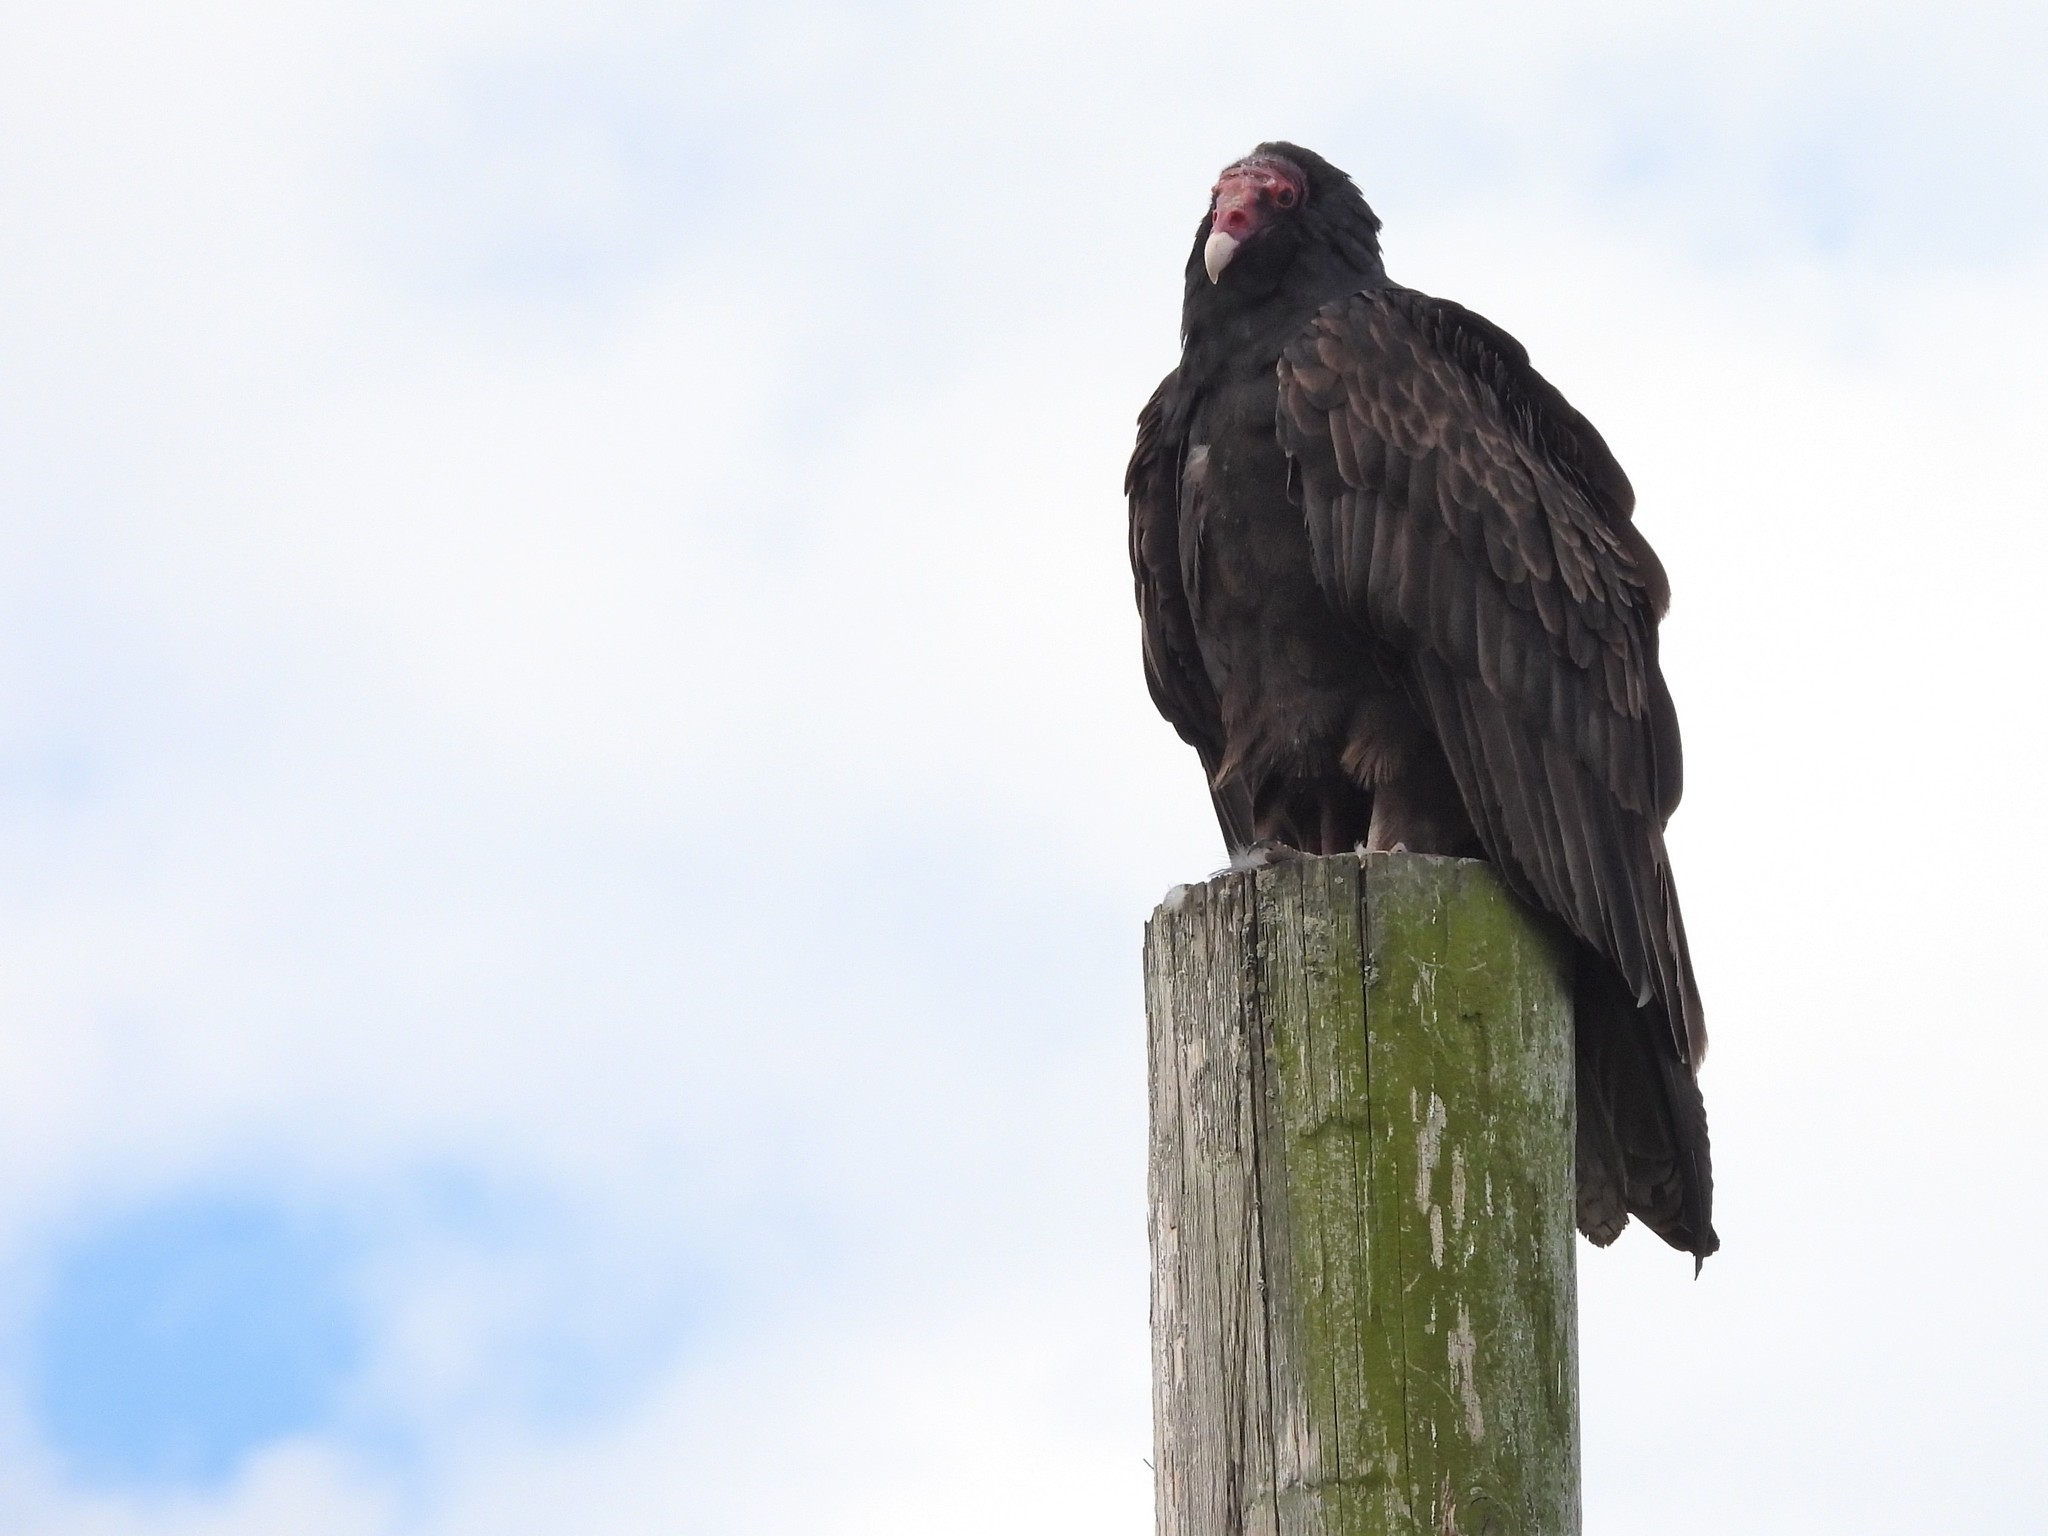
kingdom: Animalia
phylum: Chordata
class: Aves
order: Accipitriformes
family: Cathartidae
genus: Cathartes
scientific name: Cathartes aura
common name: Turkey vulture
